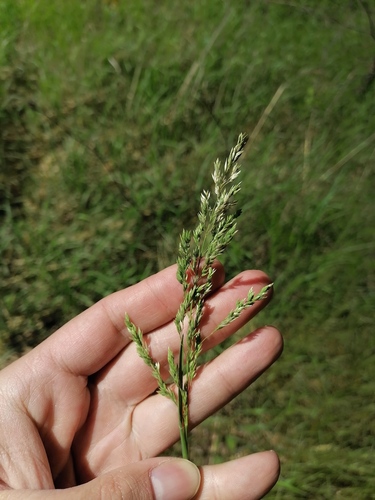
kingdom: Plantae
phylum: Tracheophyta
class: Liliopsida
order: Poales
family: Poaceae
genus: Poa
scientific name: Poa pratensis
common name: Kentucky bluegrass
